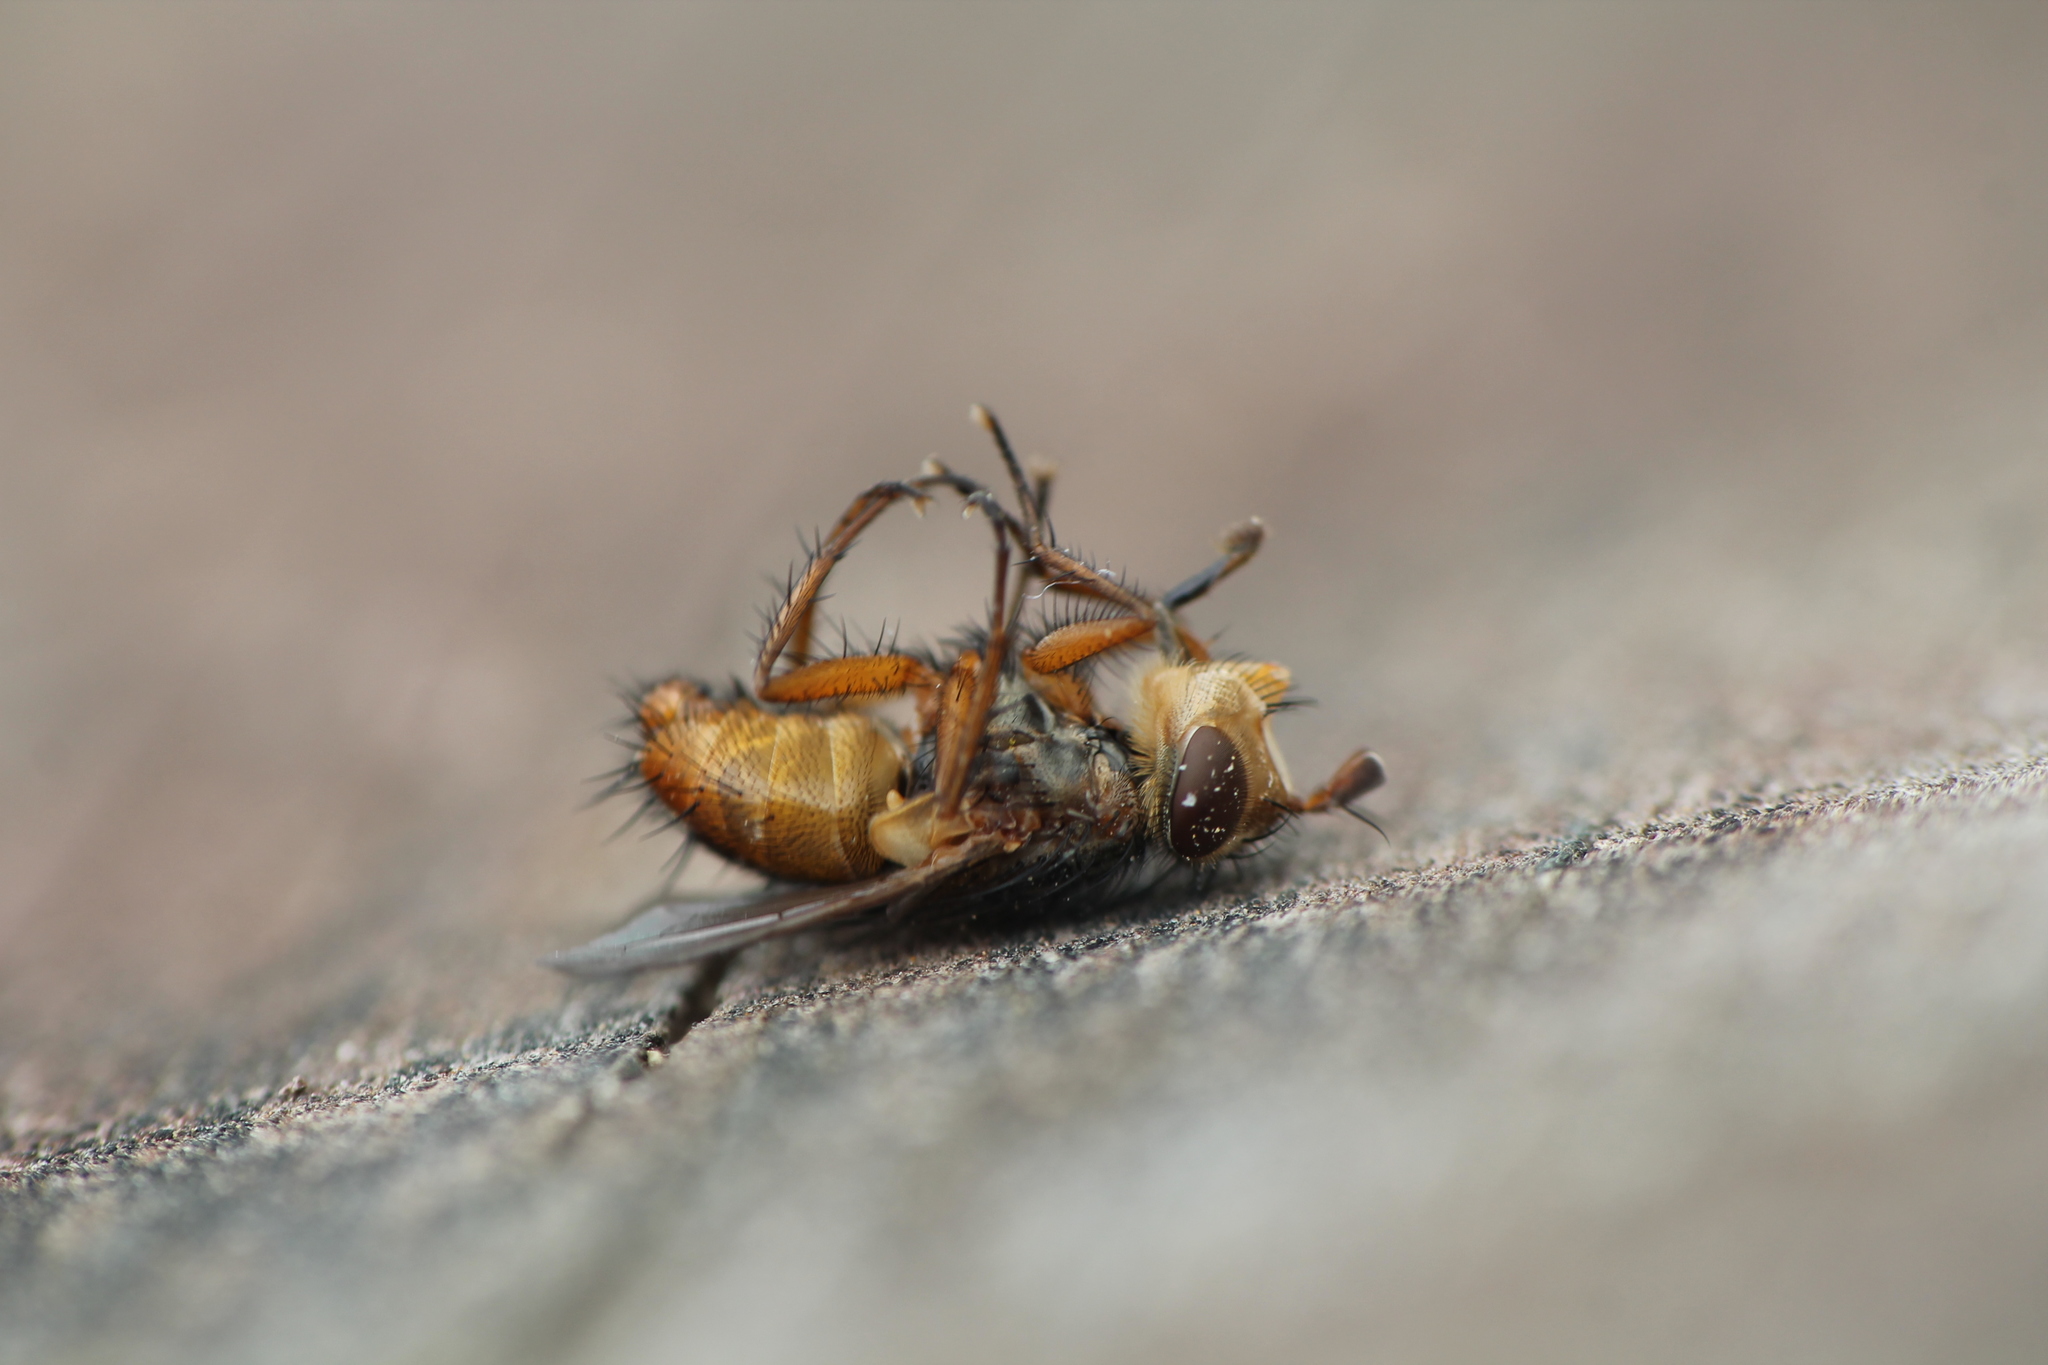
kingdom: Animalia
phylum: Arthropoda
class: Insecta
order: Diptera
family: Tachinidae
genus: Chaetophthalmus
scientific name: Chaetophthalmus bicolor
